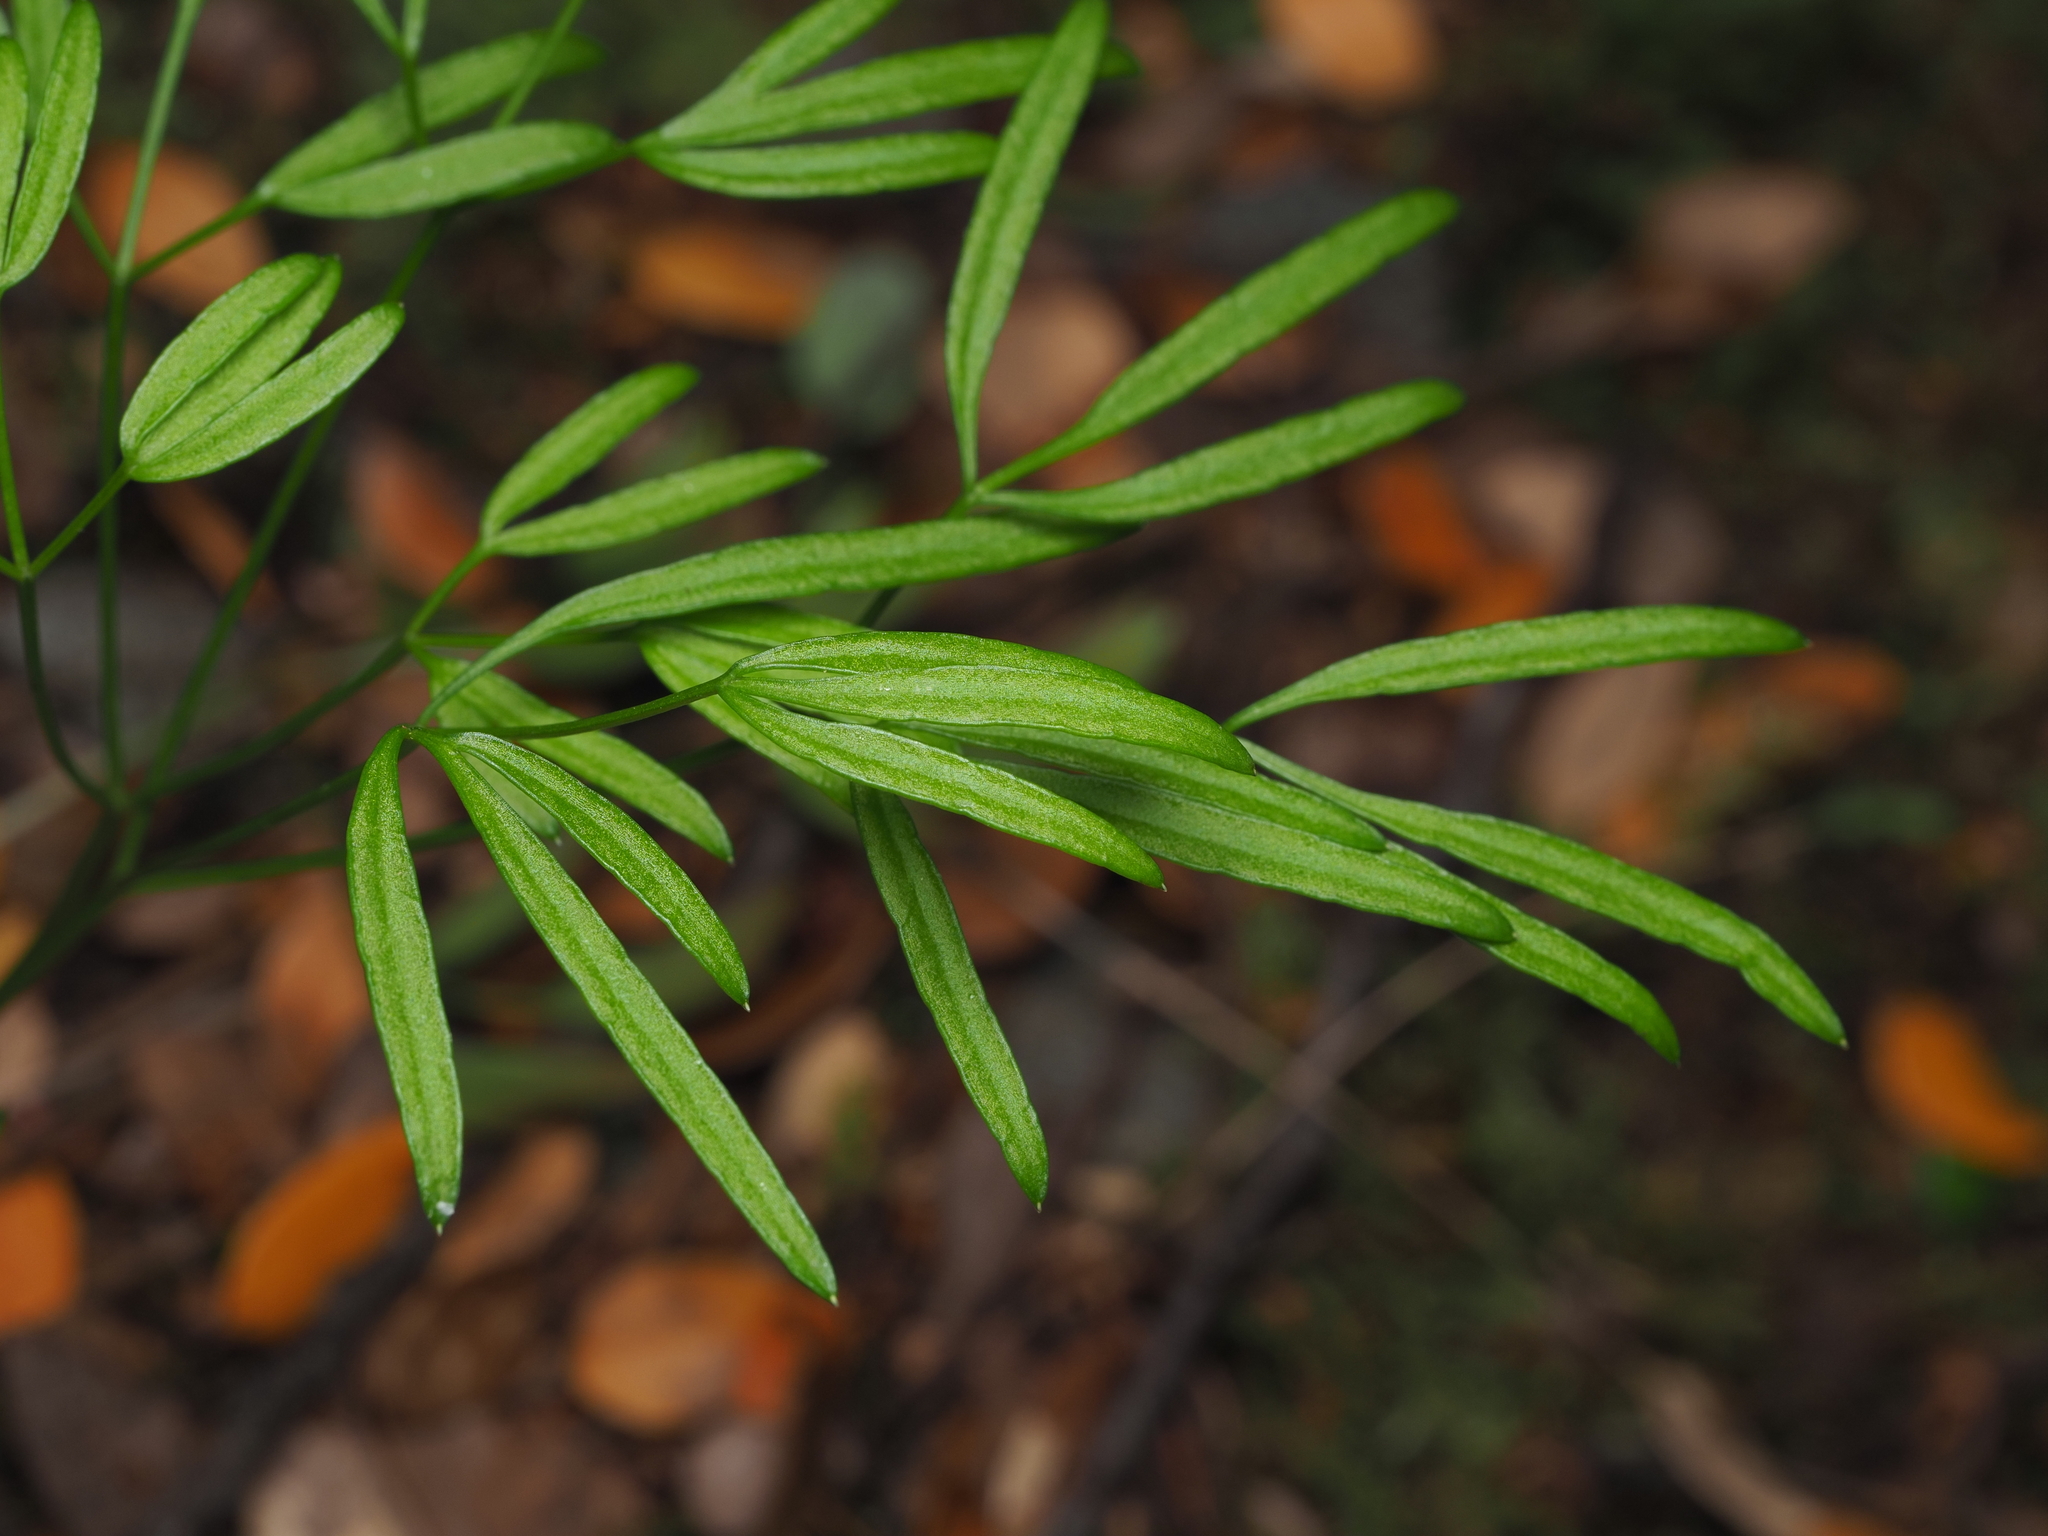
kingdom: Plantae
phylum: Tracheophyta
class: Magnoliopsida
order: Apiales
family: Apiaceae
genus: Anisotome
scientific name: Anisotome filifolia
